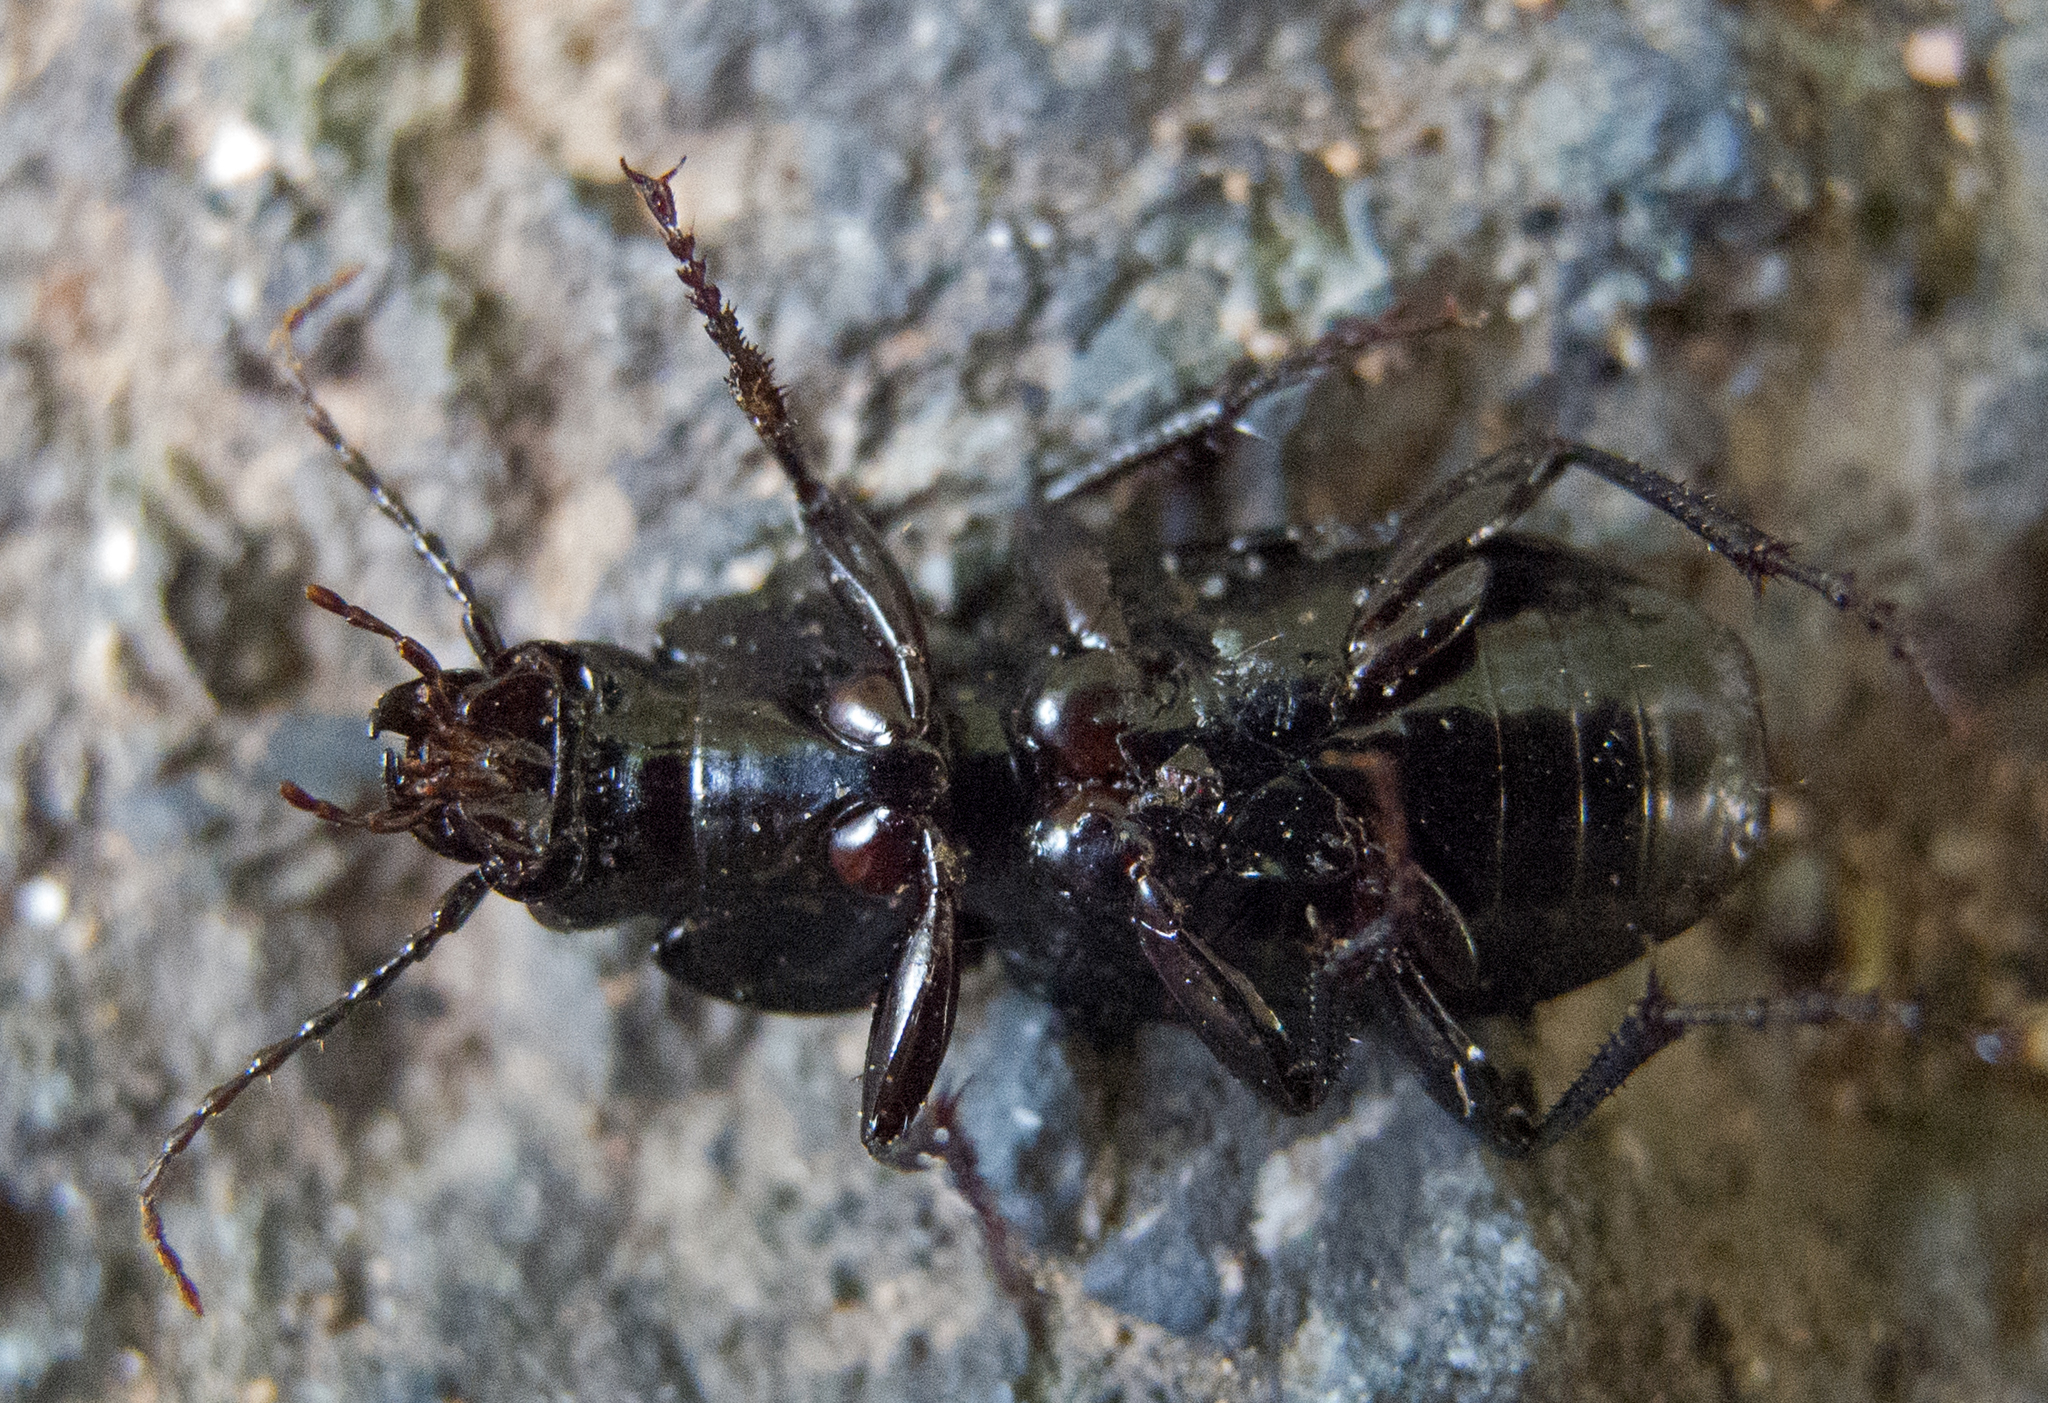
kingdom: Animalia
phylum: Arthropoda
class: Insecta
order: Coleoptera
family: Carabidae
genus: Pterostichus
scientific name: Pterostichus melas
